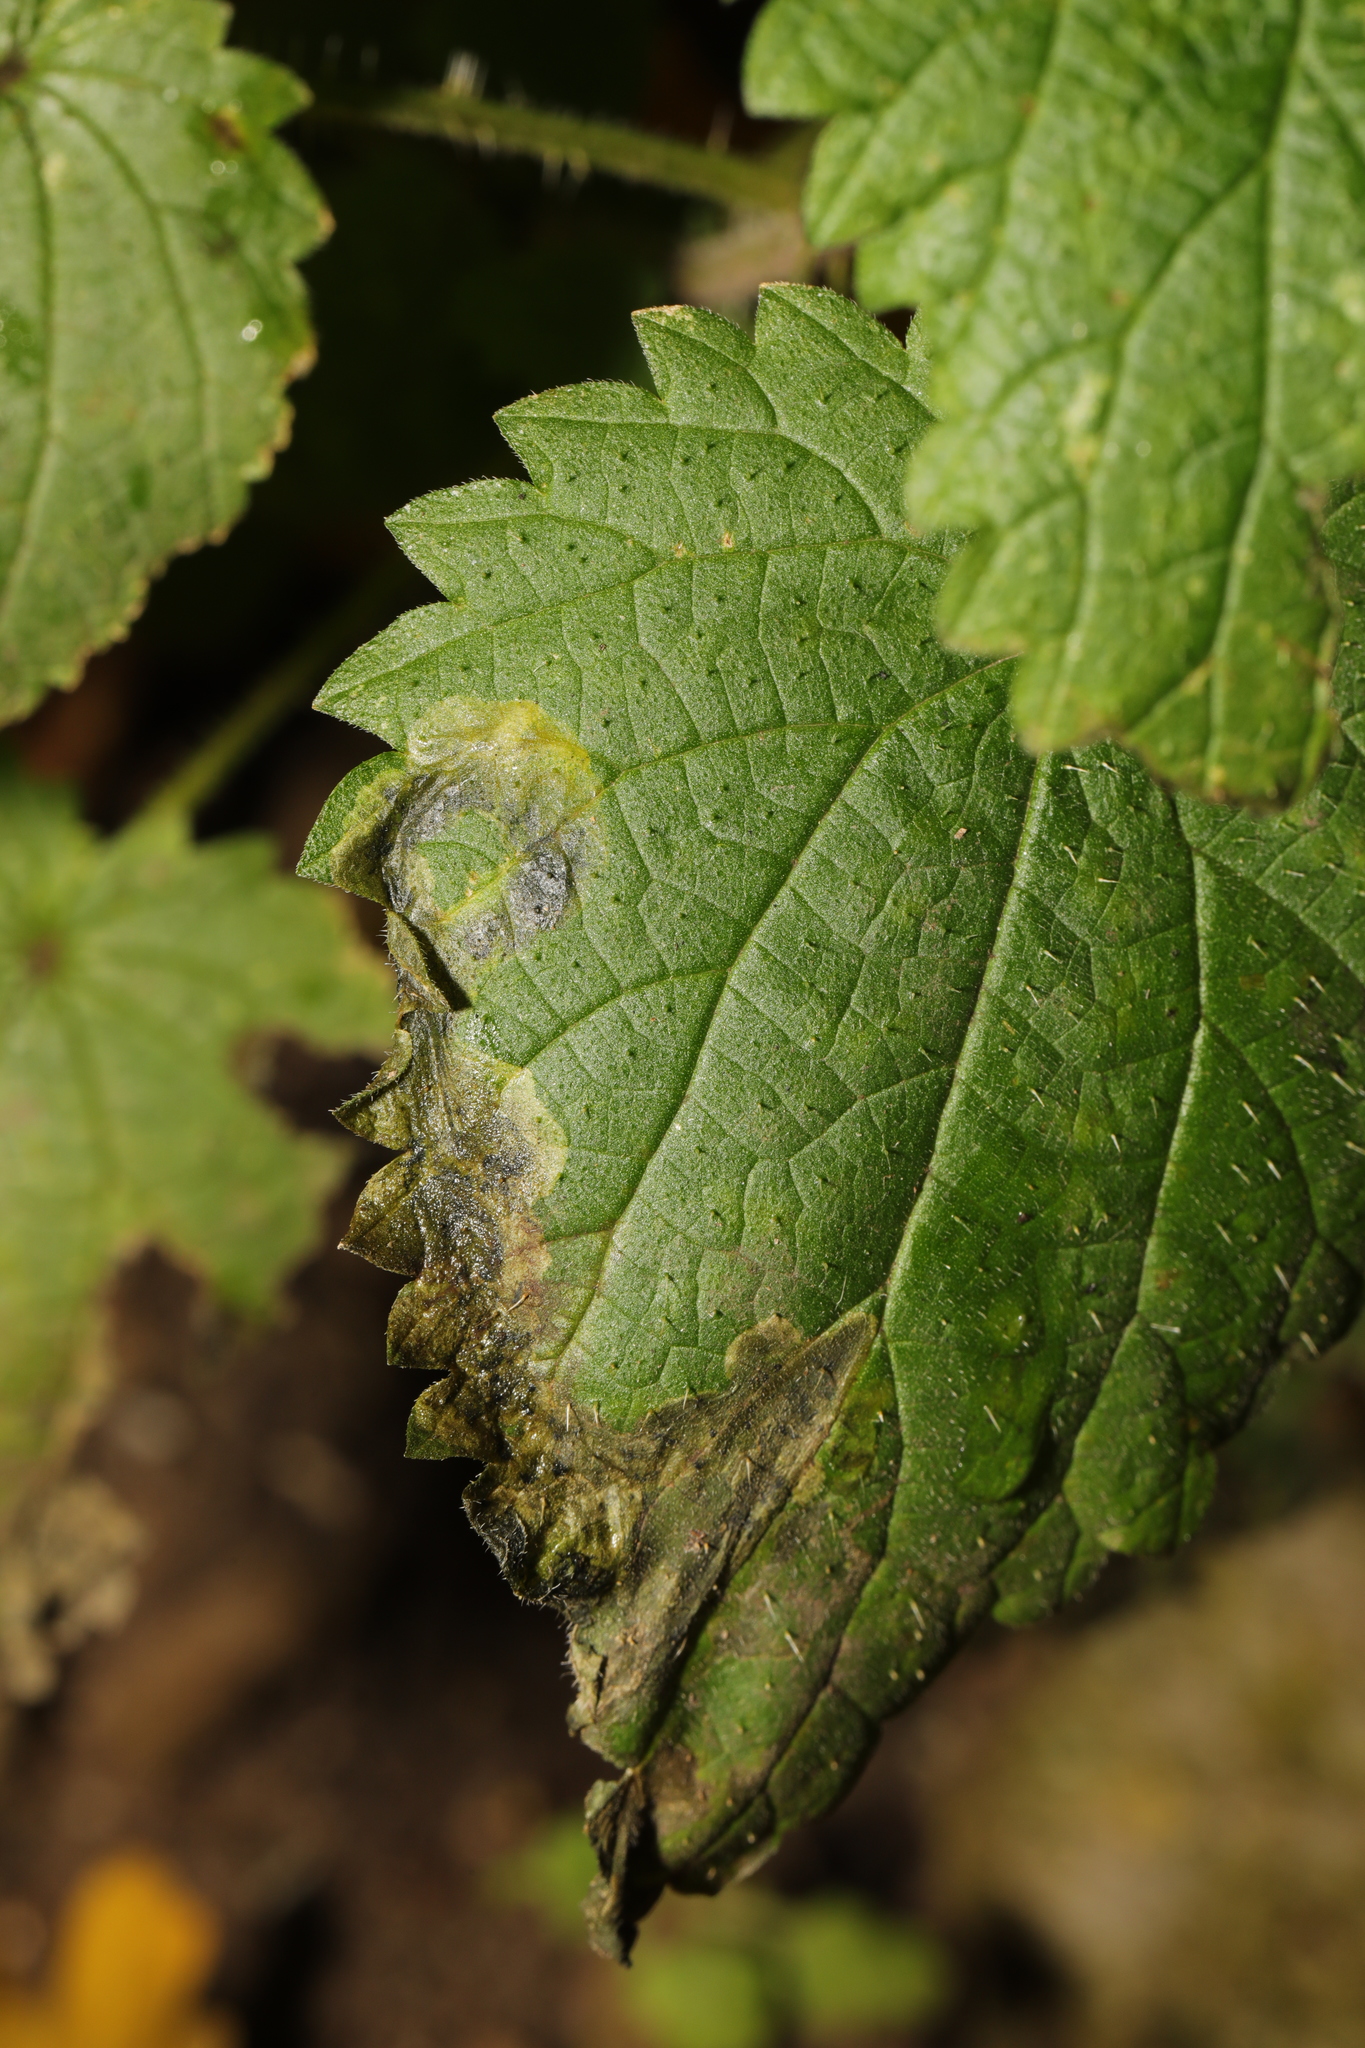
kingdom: Animalia
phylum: Arthropoda
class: Insecta
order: Diptera
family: Agromyzidae
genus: Agromyza
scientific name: Agromyza anthracina
